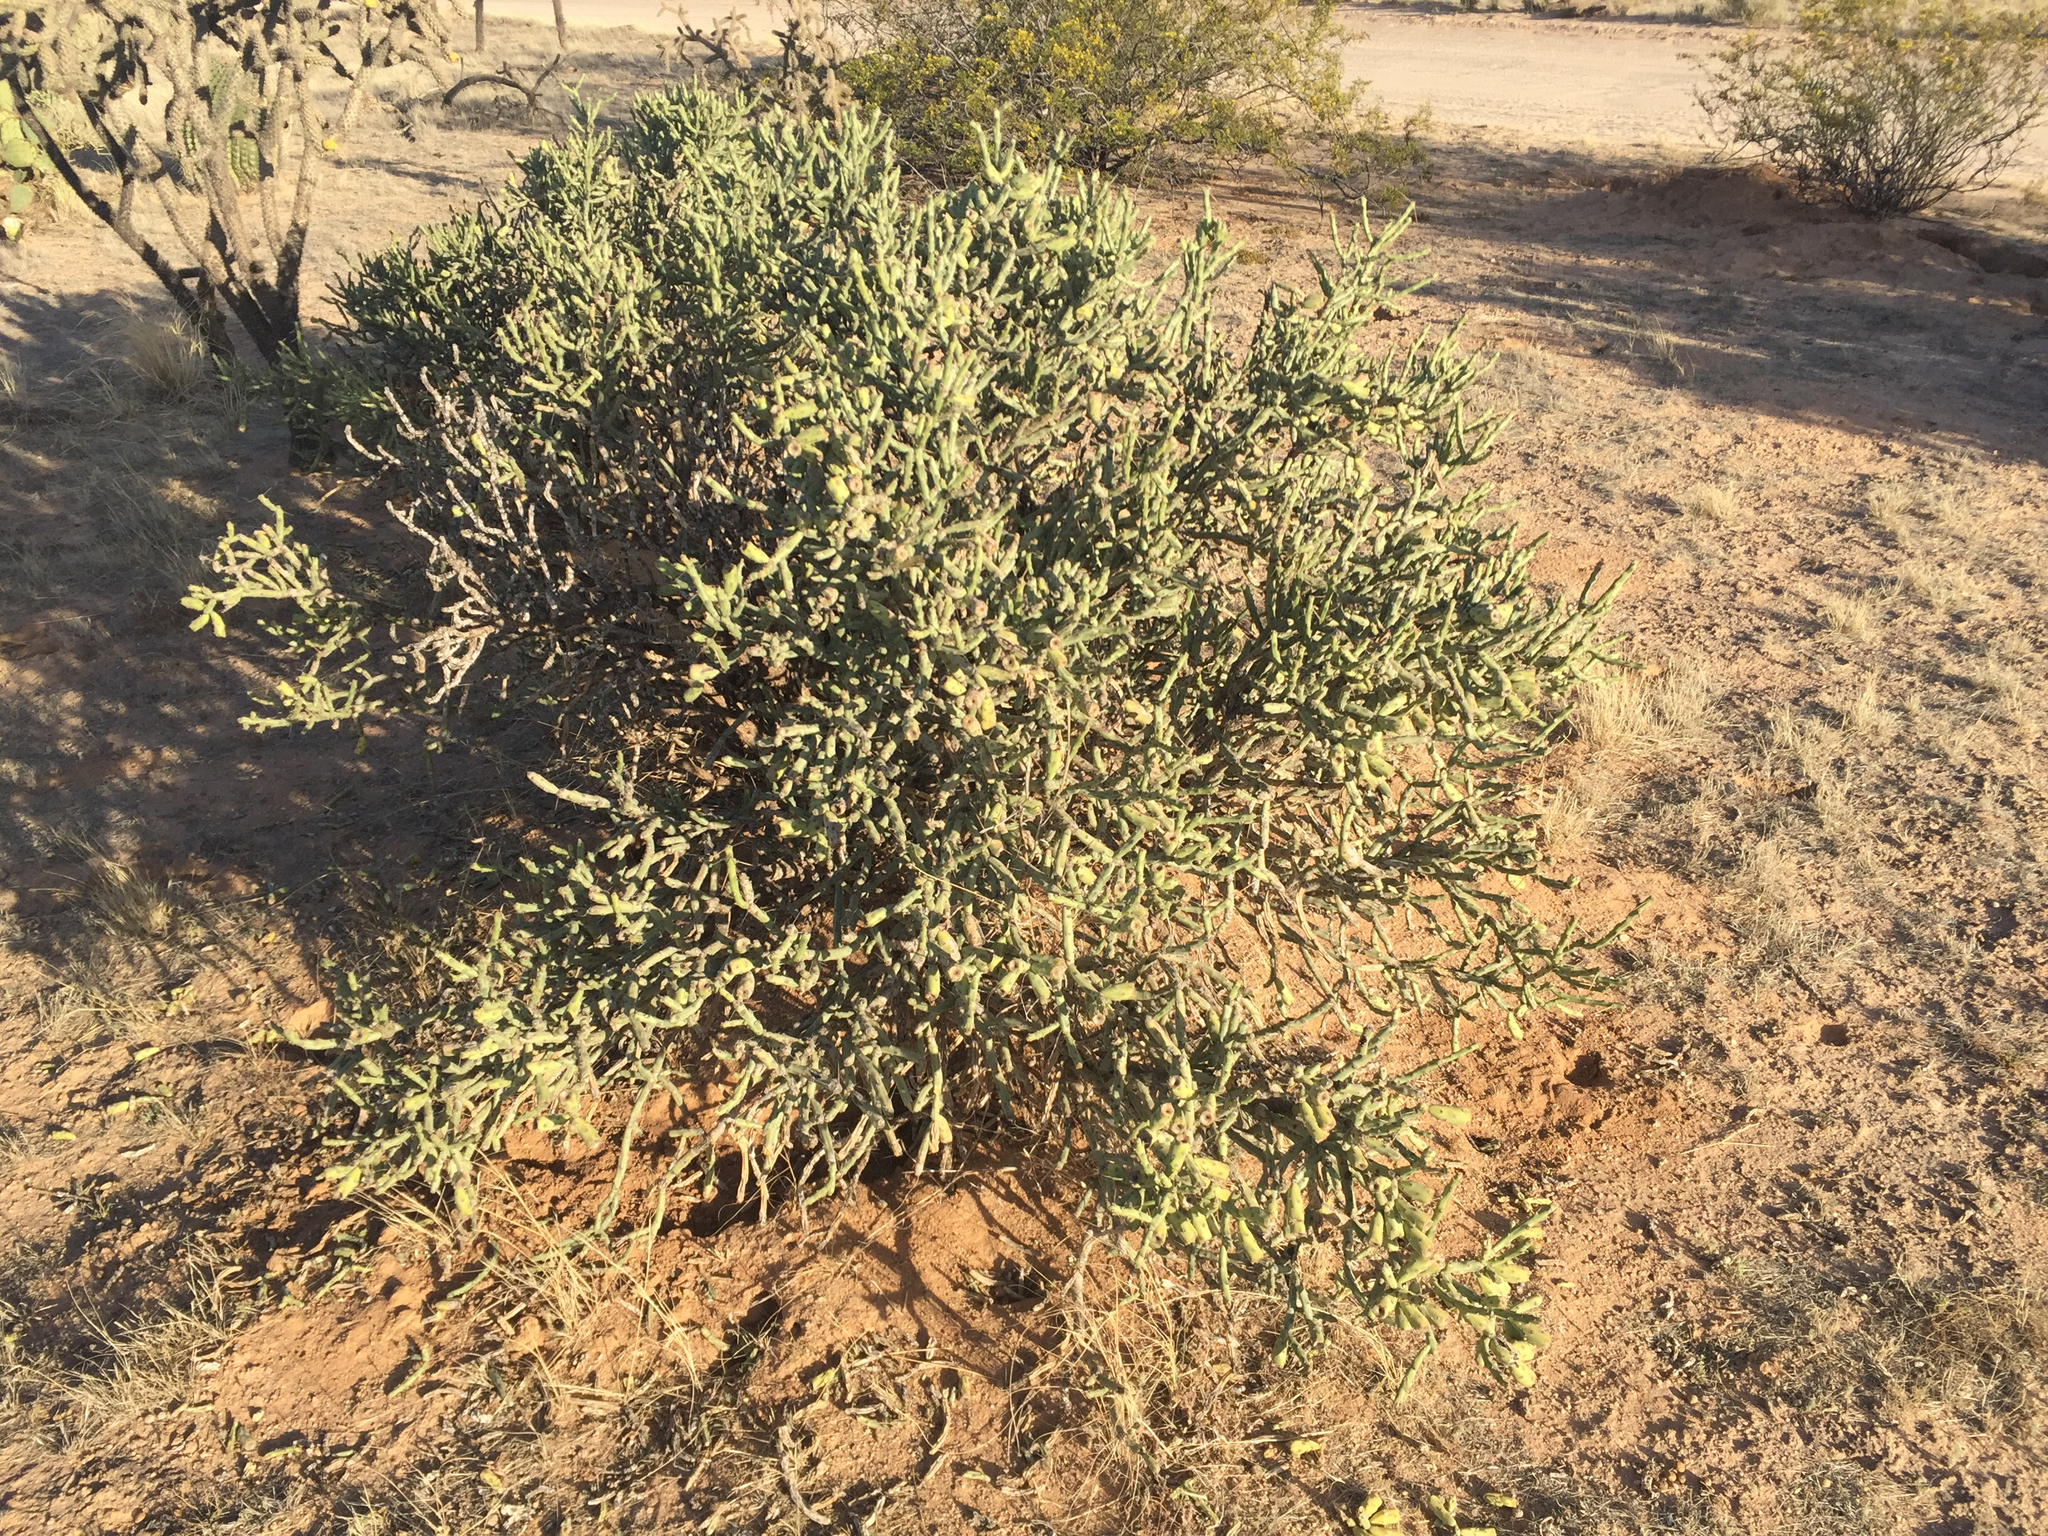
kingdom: Plantae
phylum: Tracheophyta
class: Magnoliopsida
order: Caryophyllales
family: Cactaceae
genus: Cylindropuntia
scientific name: Cylindropuntia arbuscula
